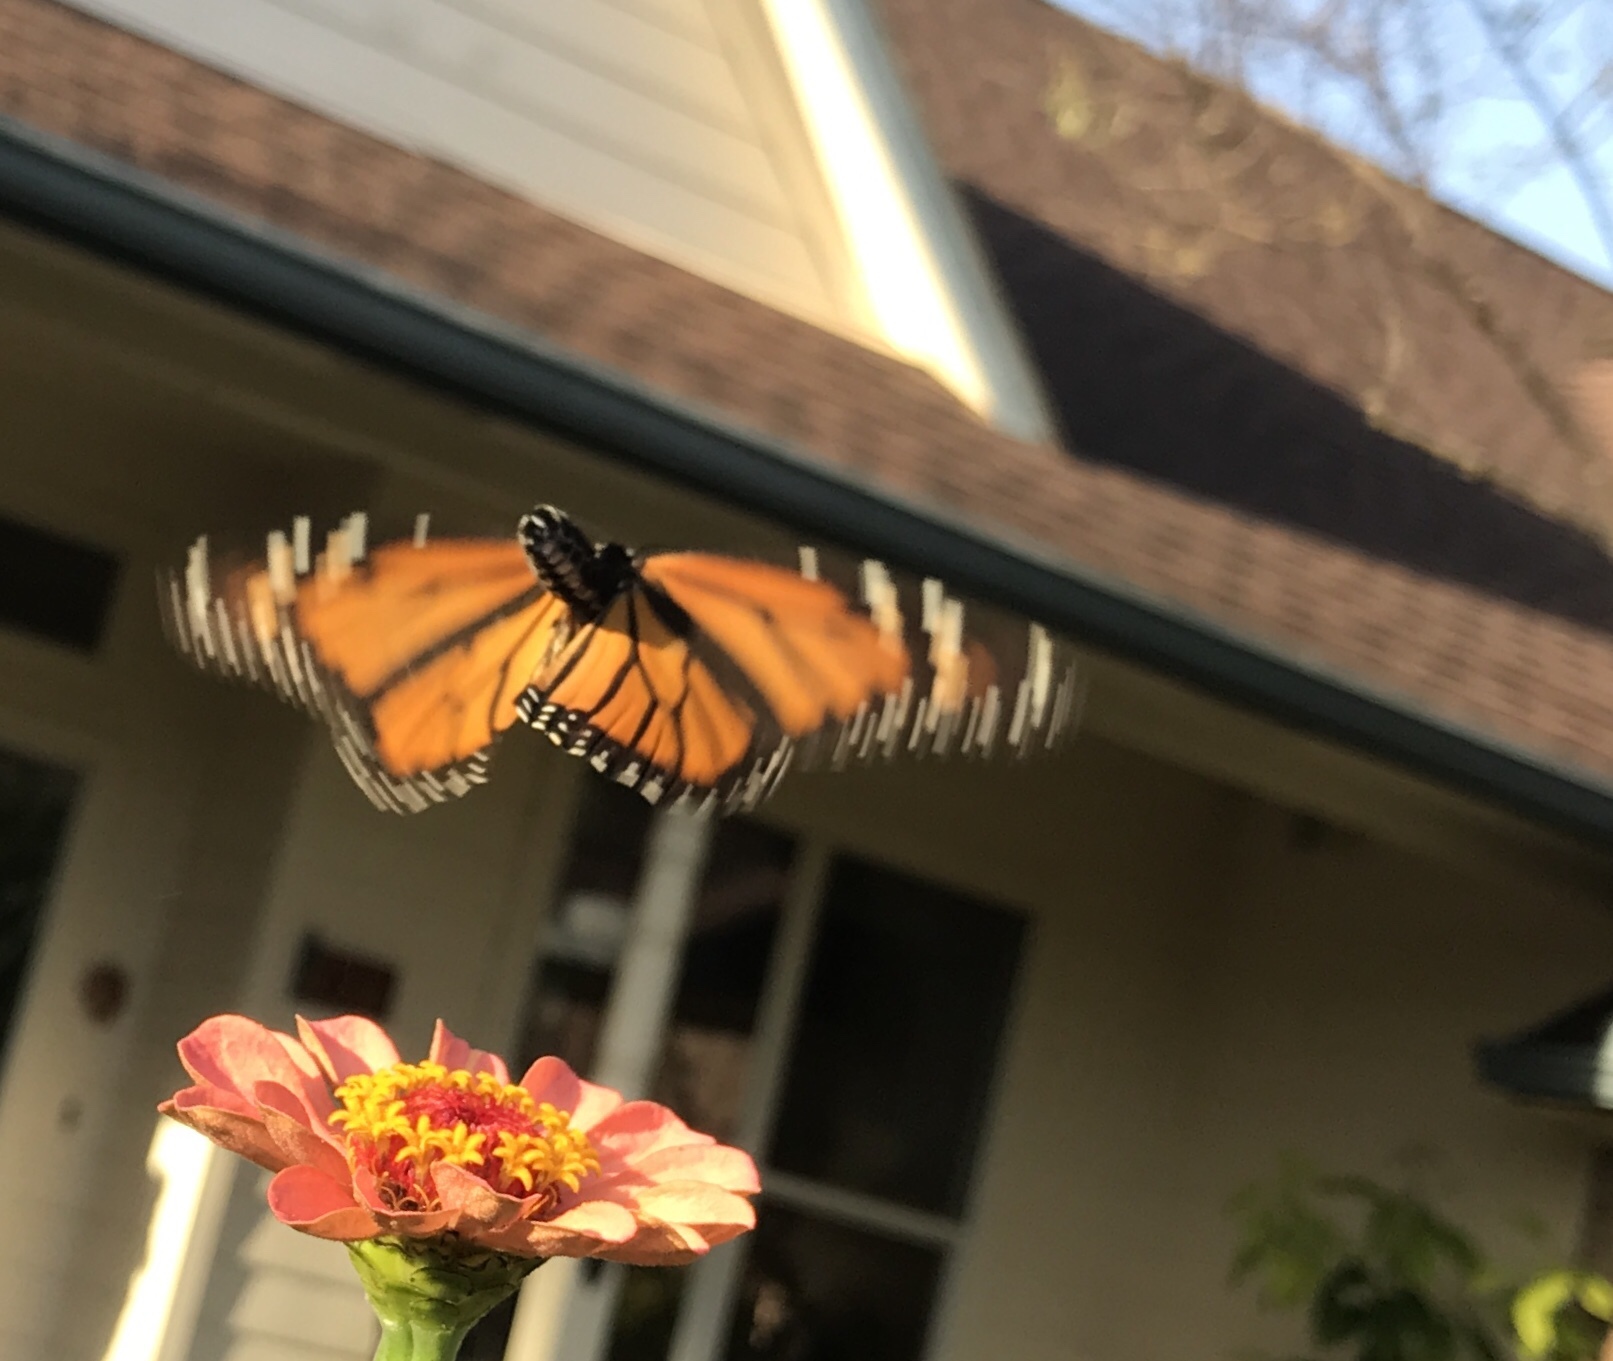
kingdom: Animalia
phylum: Arthropoda
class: Insecta
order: Lepidoptera
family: Nymphalidae
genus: Danaus
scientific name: Danaus plexippus
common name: Monarch
